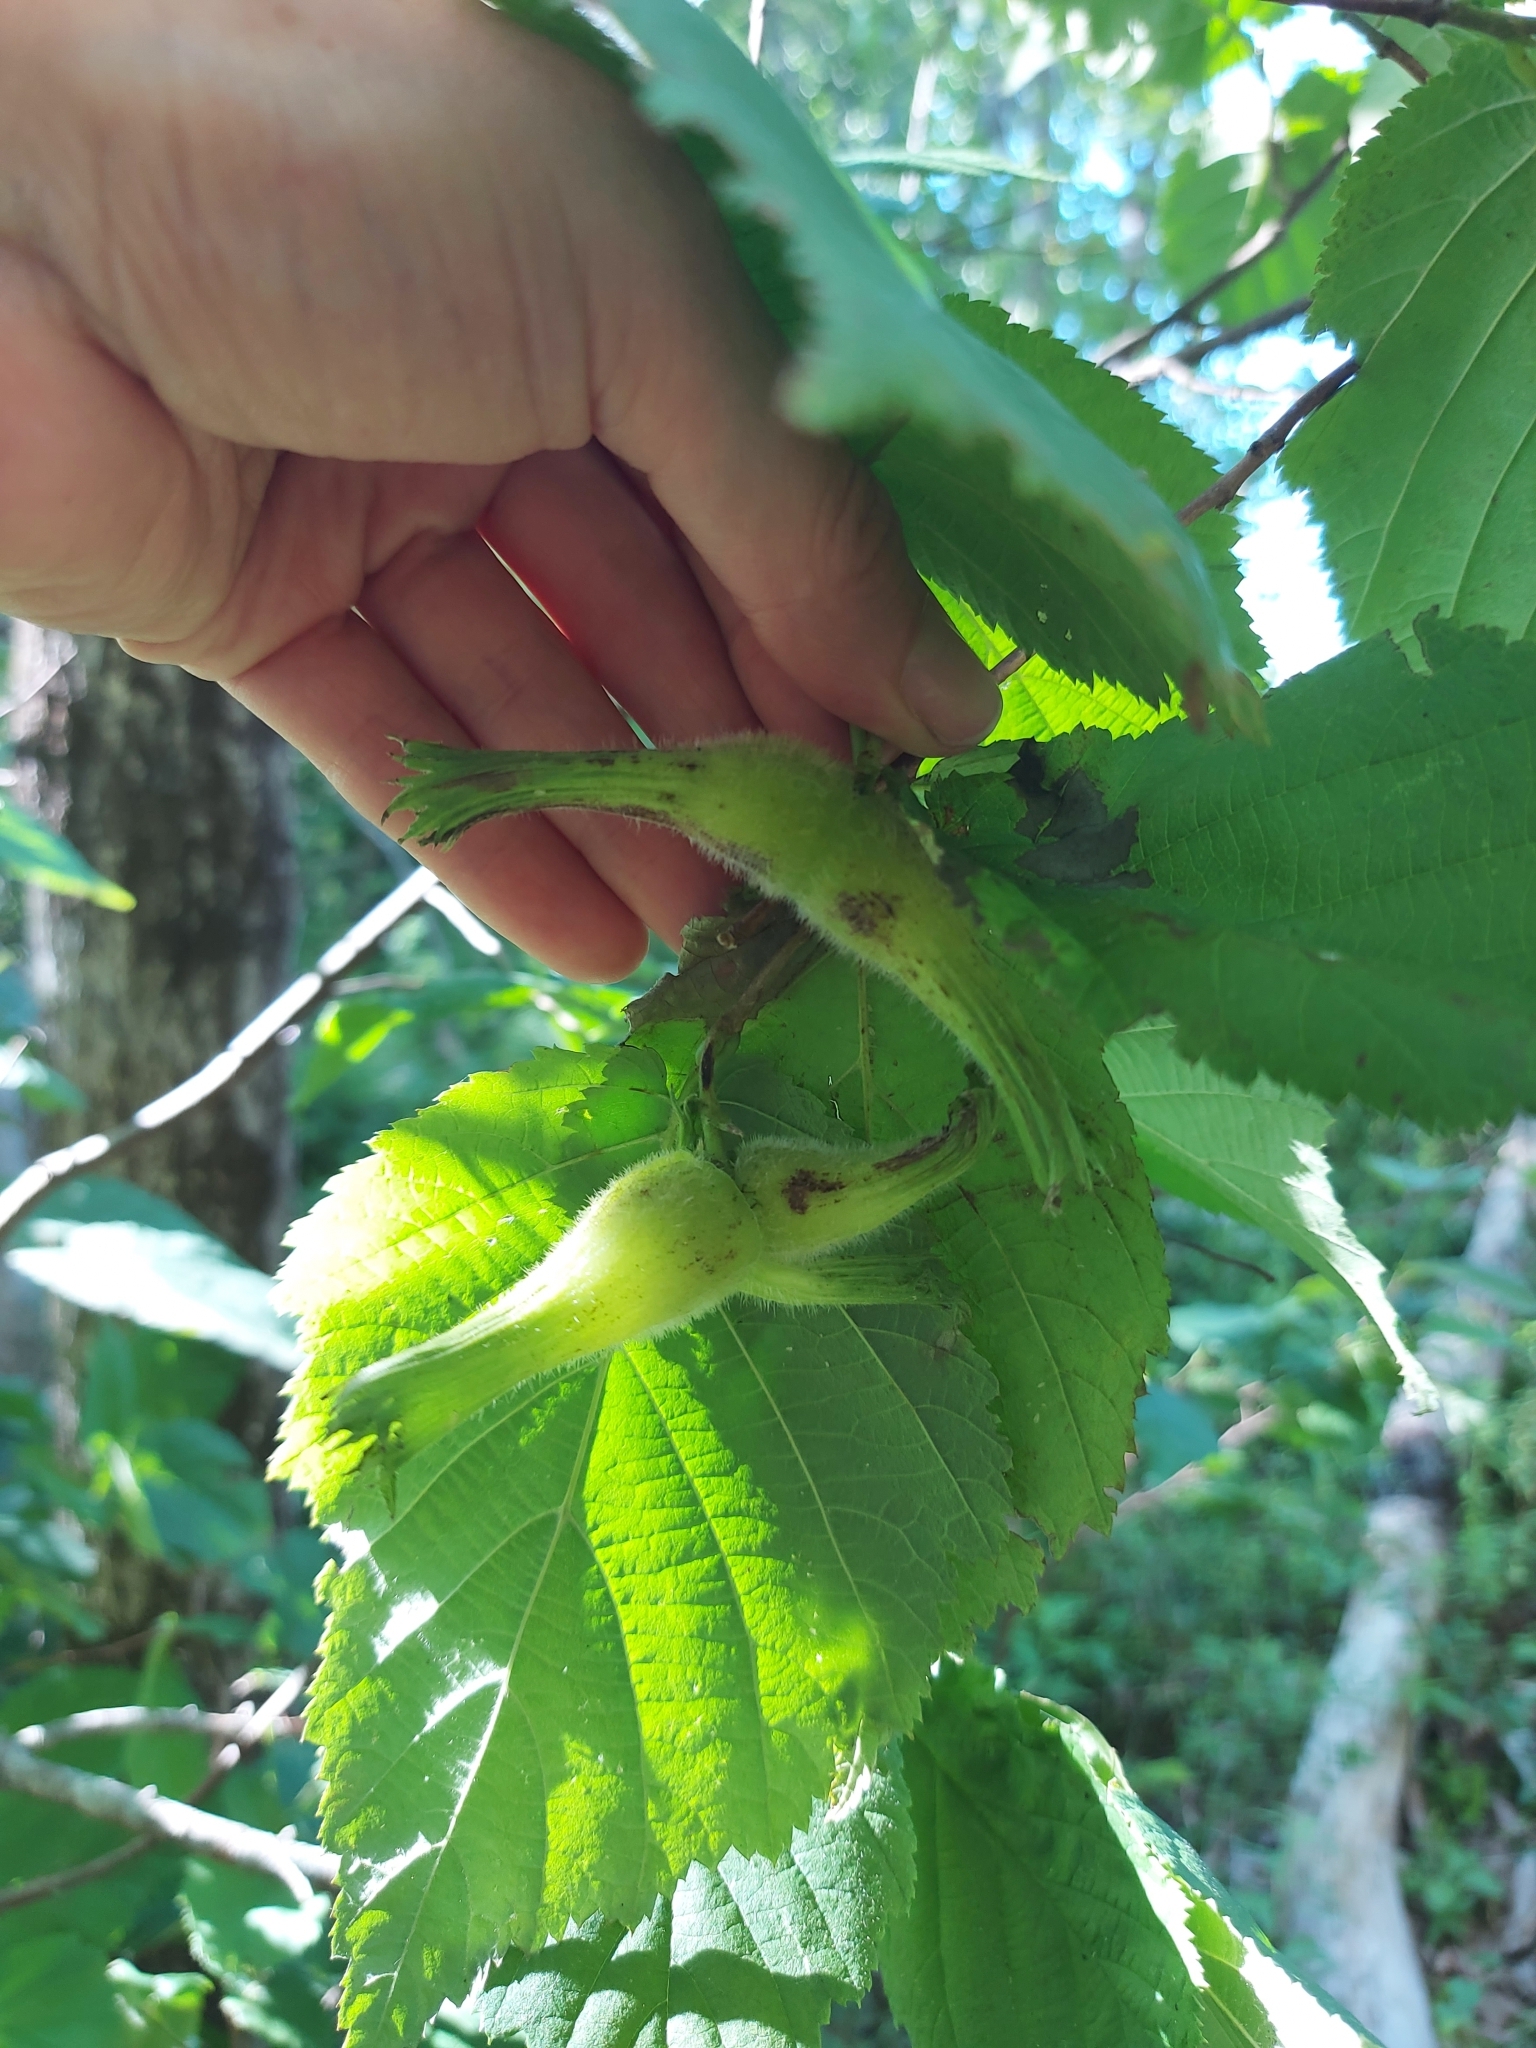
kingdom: Plantae
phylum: Tracheophyta
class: Magnoliopsida
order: Fagales
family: Betulaceae
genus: Corylus
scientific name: Corylus cornuta
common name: Beaked hazel
